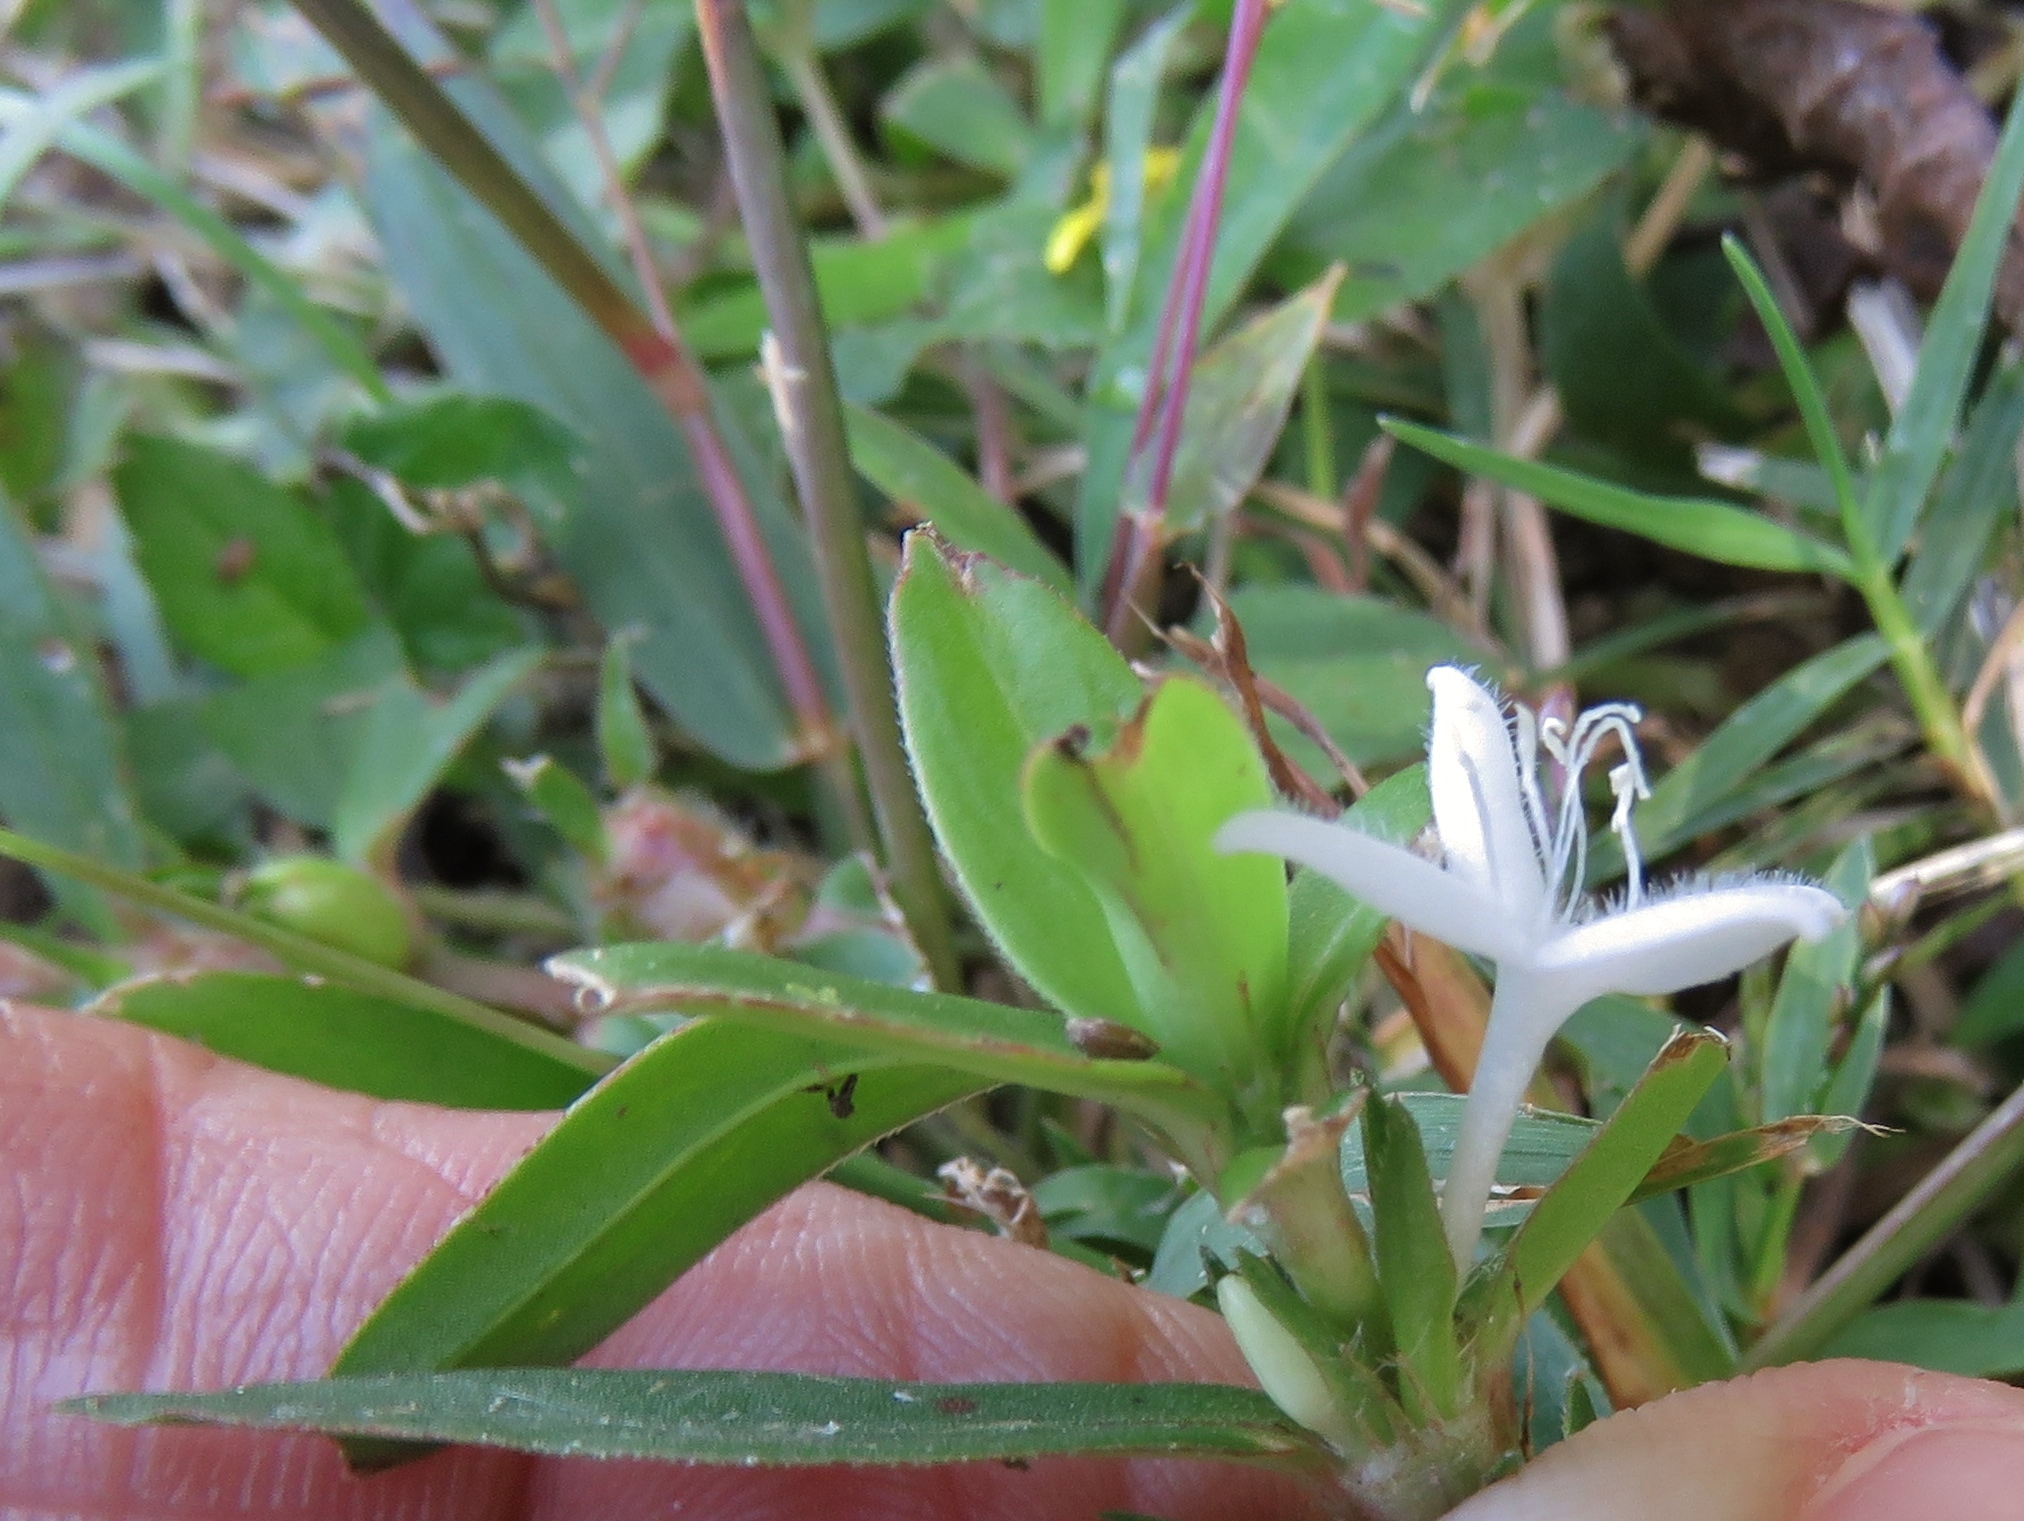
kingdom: Plantae
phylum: Tracheophyta
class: Magnoliopsida
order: Gentianales
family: Rubiaceae
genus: Diodia
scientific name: Diodia virginiana
